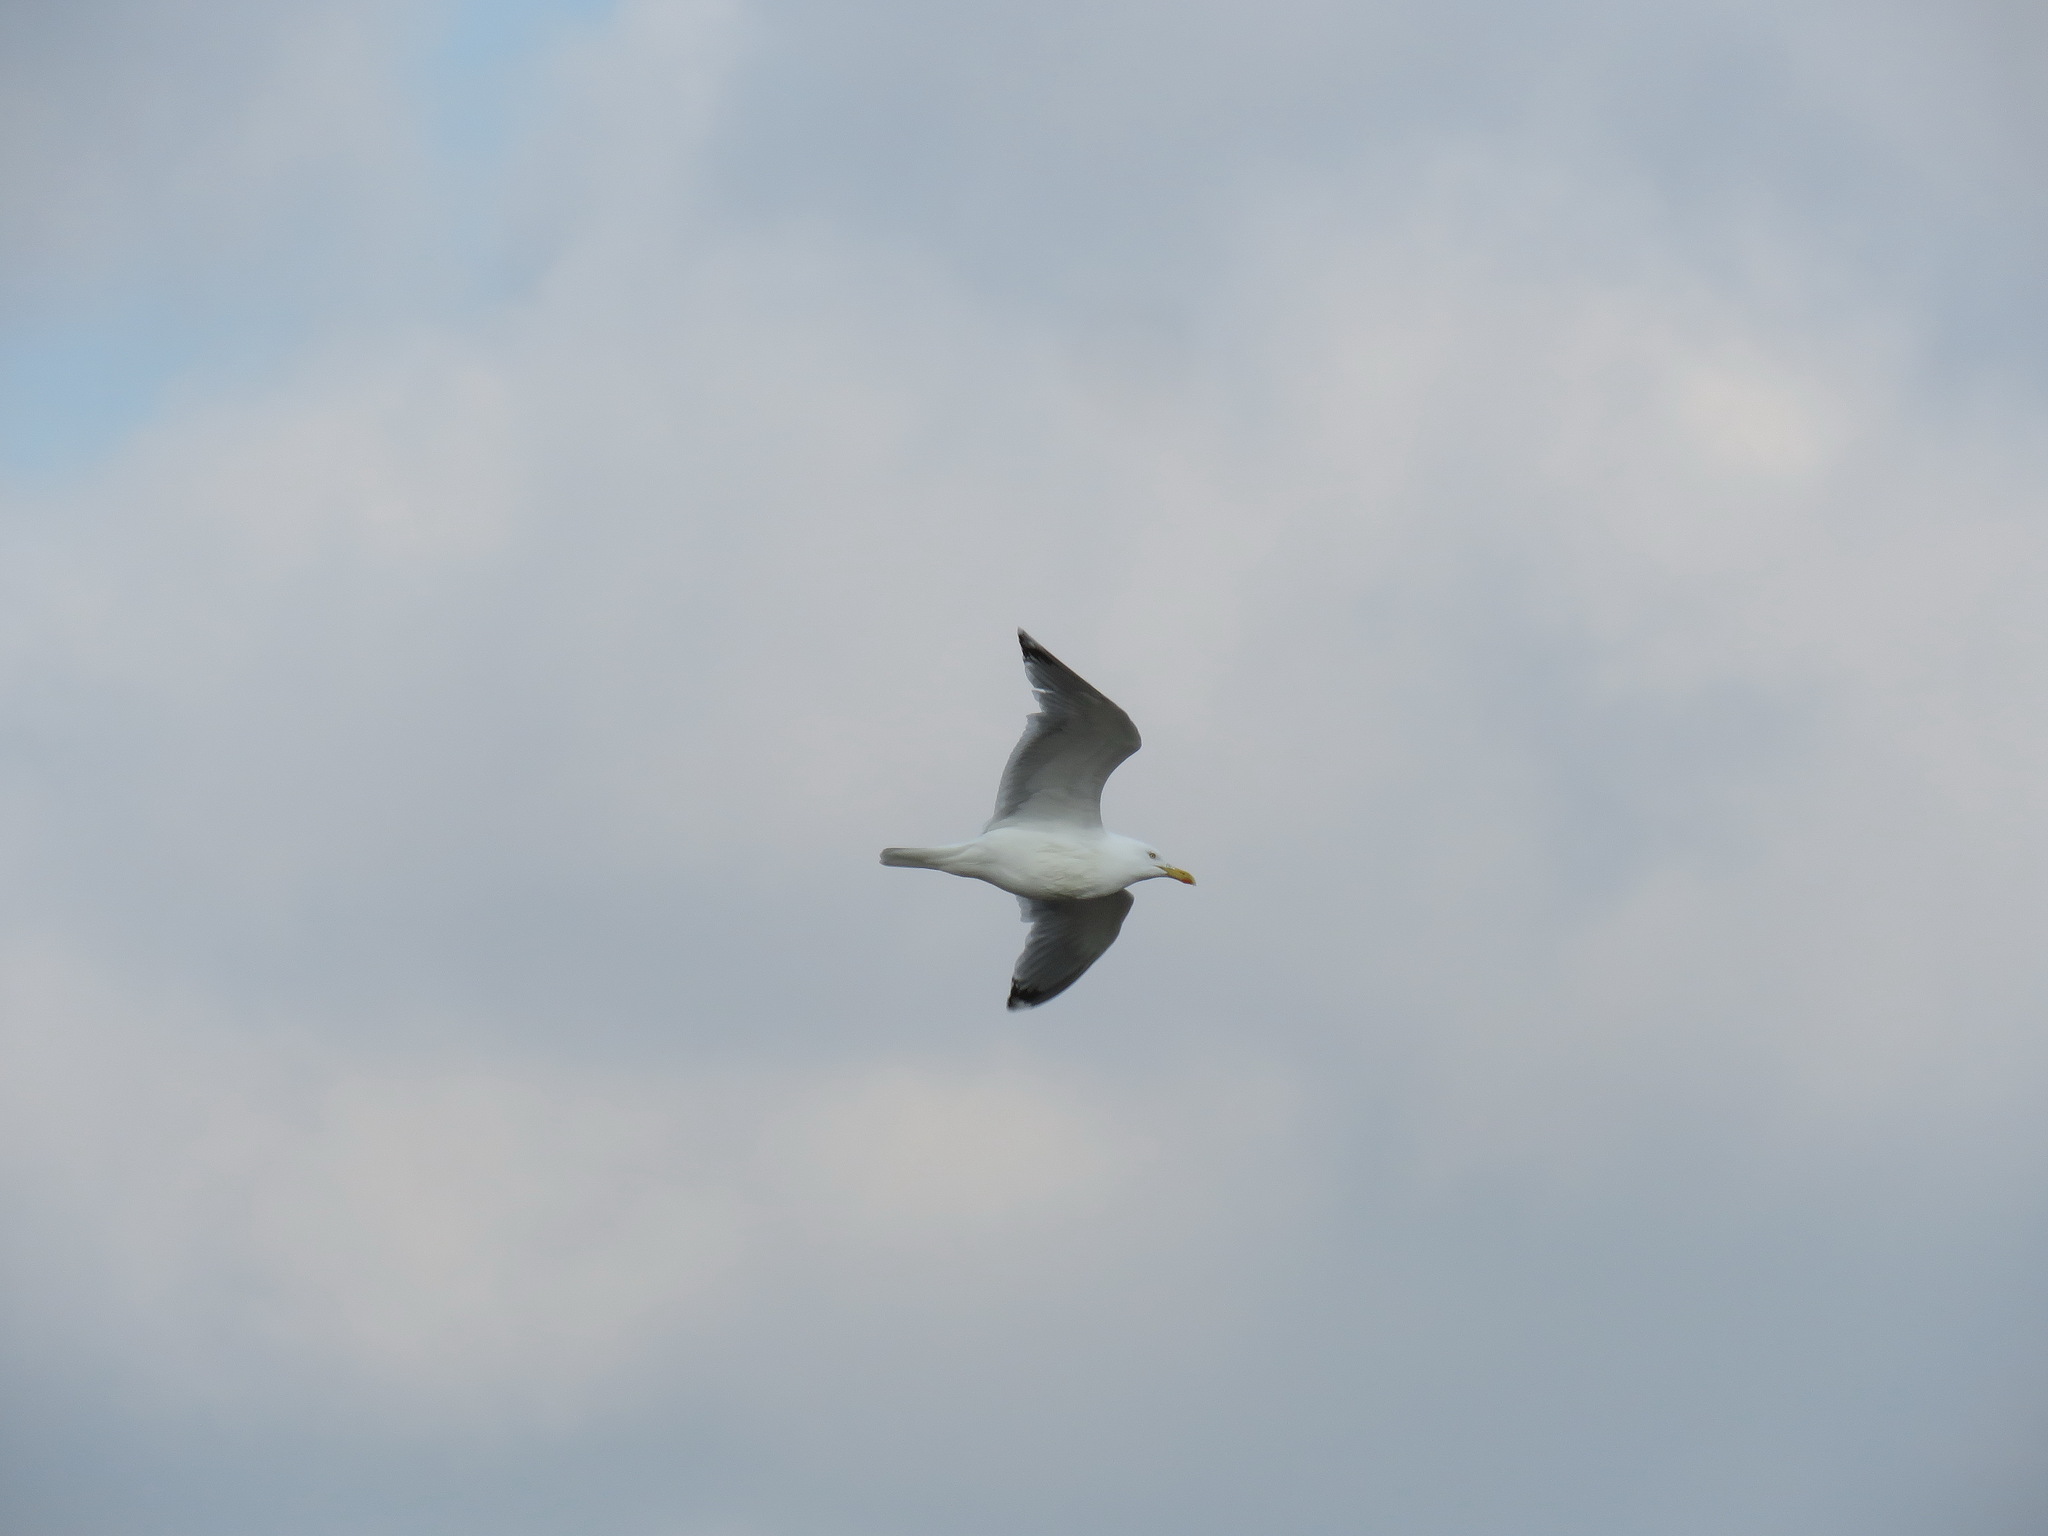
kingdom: Animalia
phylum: Chordata
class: Aves
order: Charadriiformes
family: Laridae
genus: Larus
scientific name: Larus argentatus
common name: Herring gull
